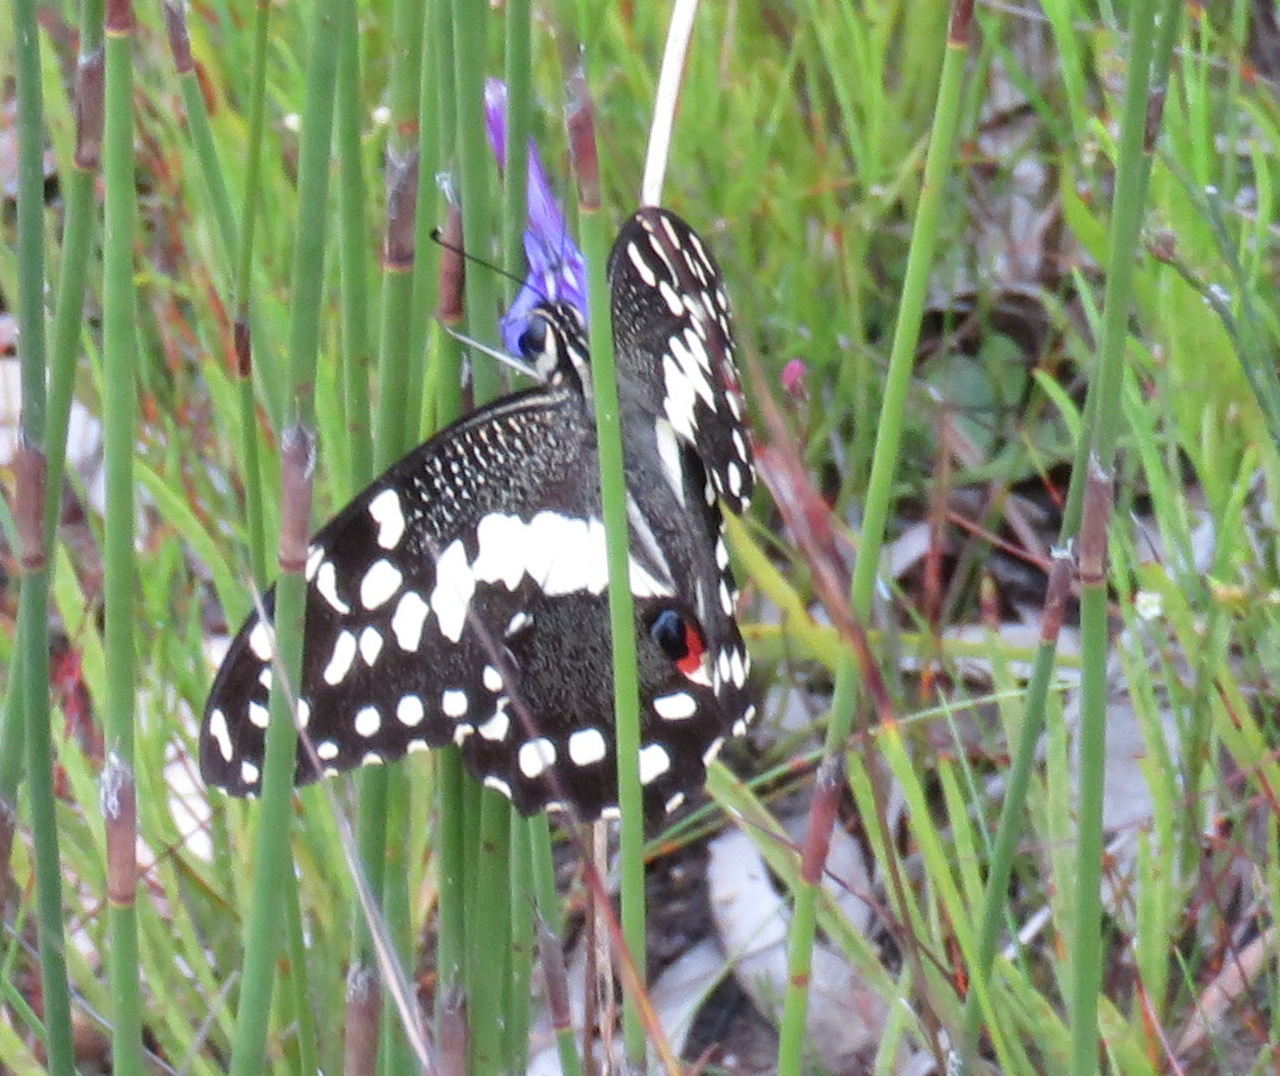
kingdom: Animalia
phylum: Arthropoda
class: Insecta
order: Lepidoptera
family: Papilionidae
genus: Papilio
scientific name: Papilio demodocus
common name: Christmas butterfly
